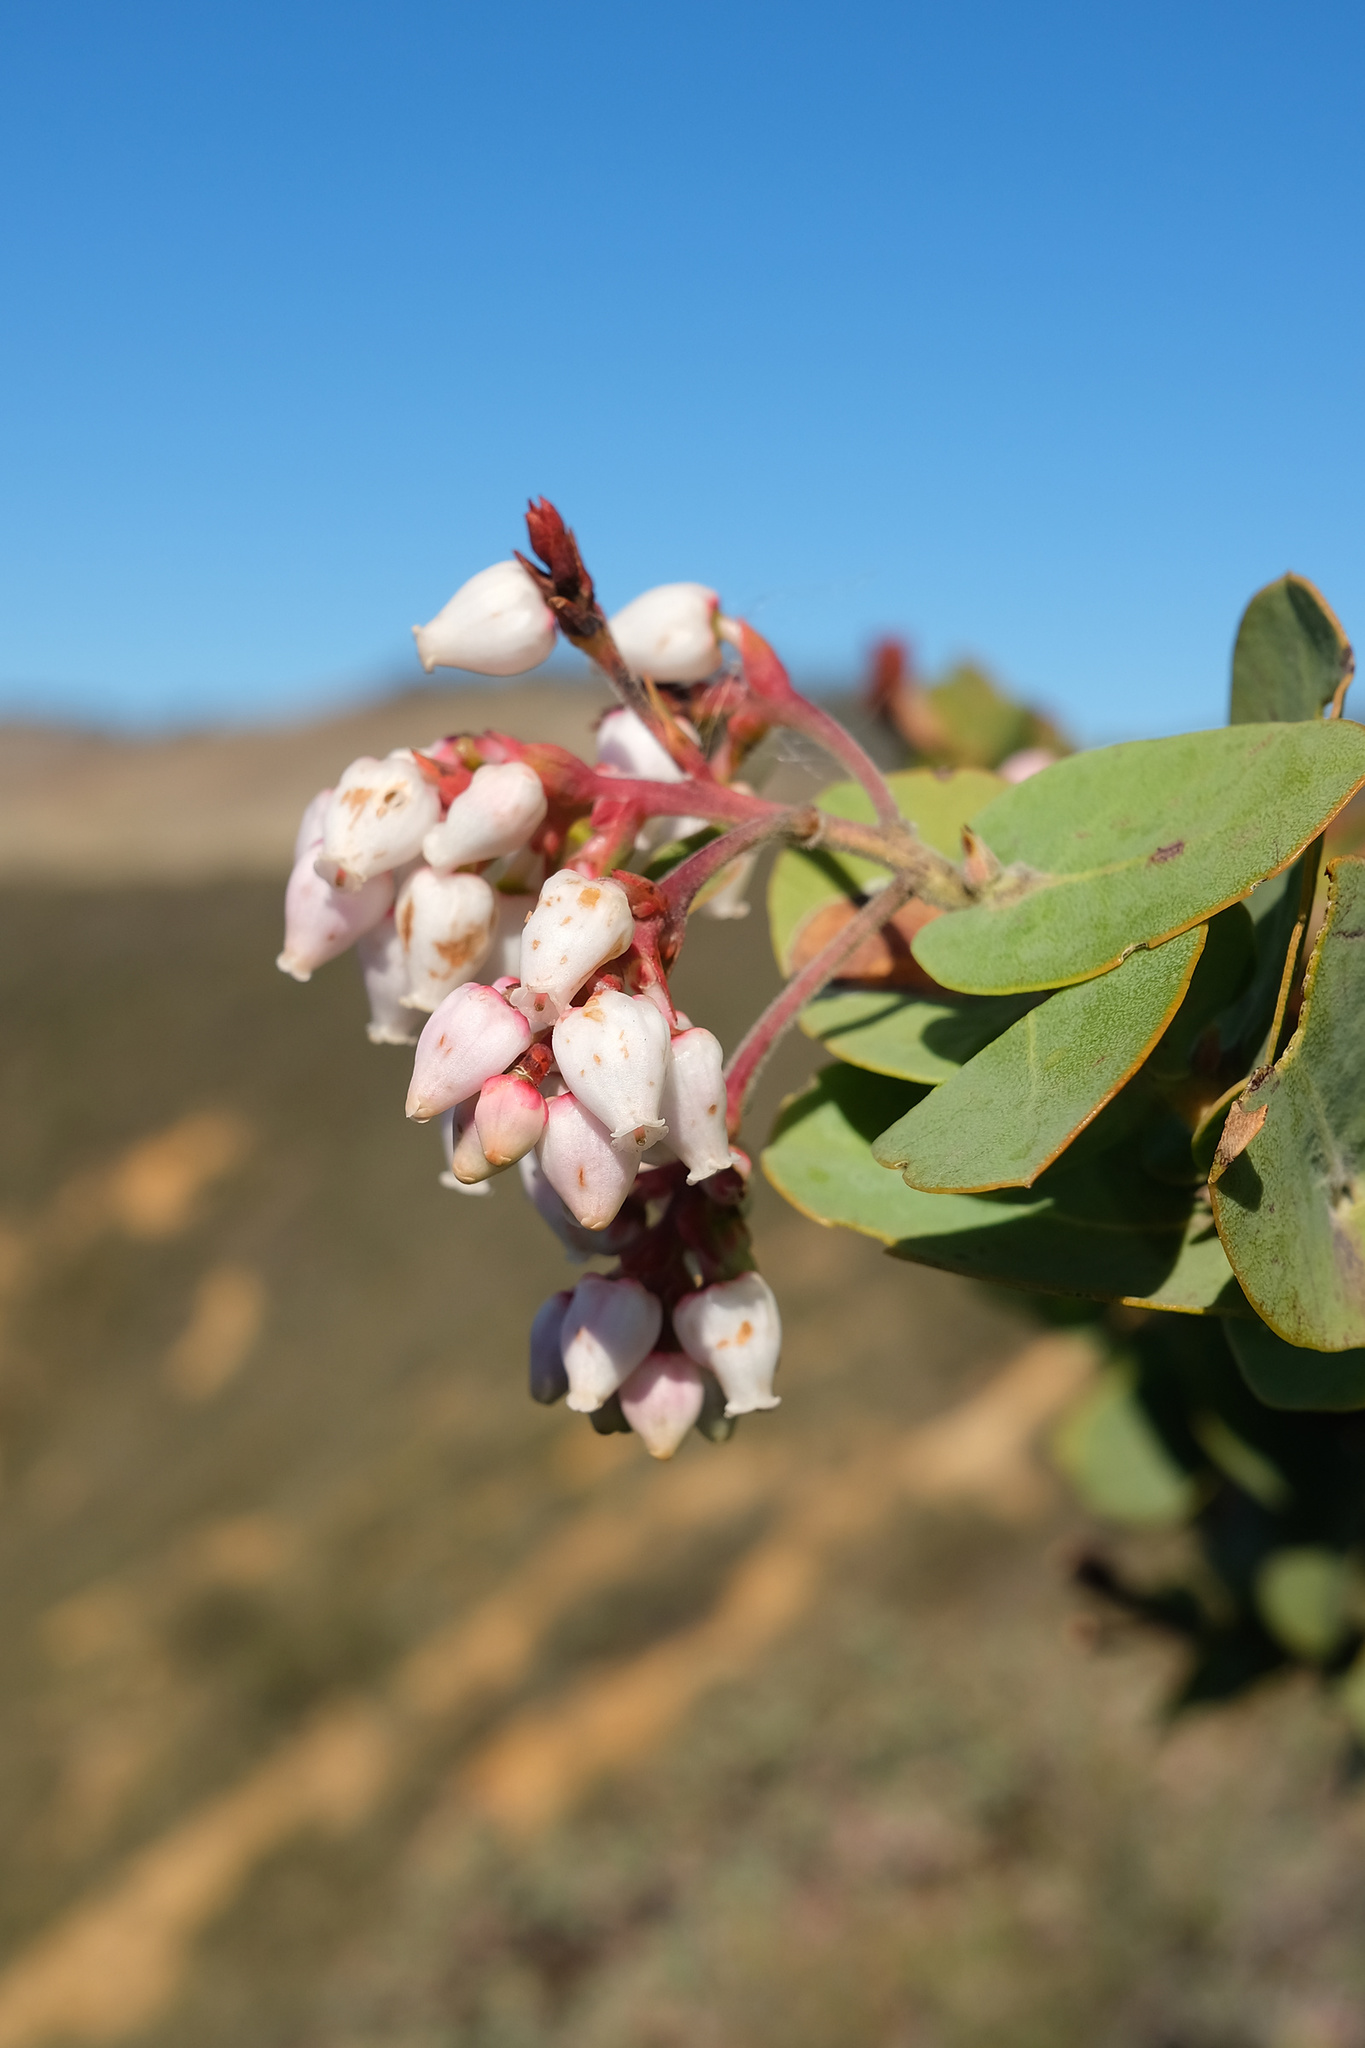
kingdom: Plantae
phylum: Tracheophyta
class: Magnoliopsida
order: Ericales
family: Ericaceae
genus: Arctostaphylos
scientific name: Arctostaphylos gabilanensis
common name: Gabilan manzanita
